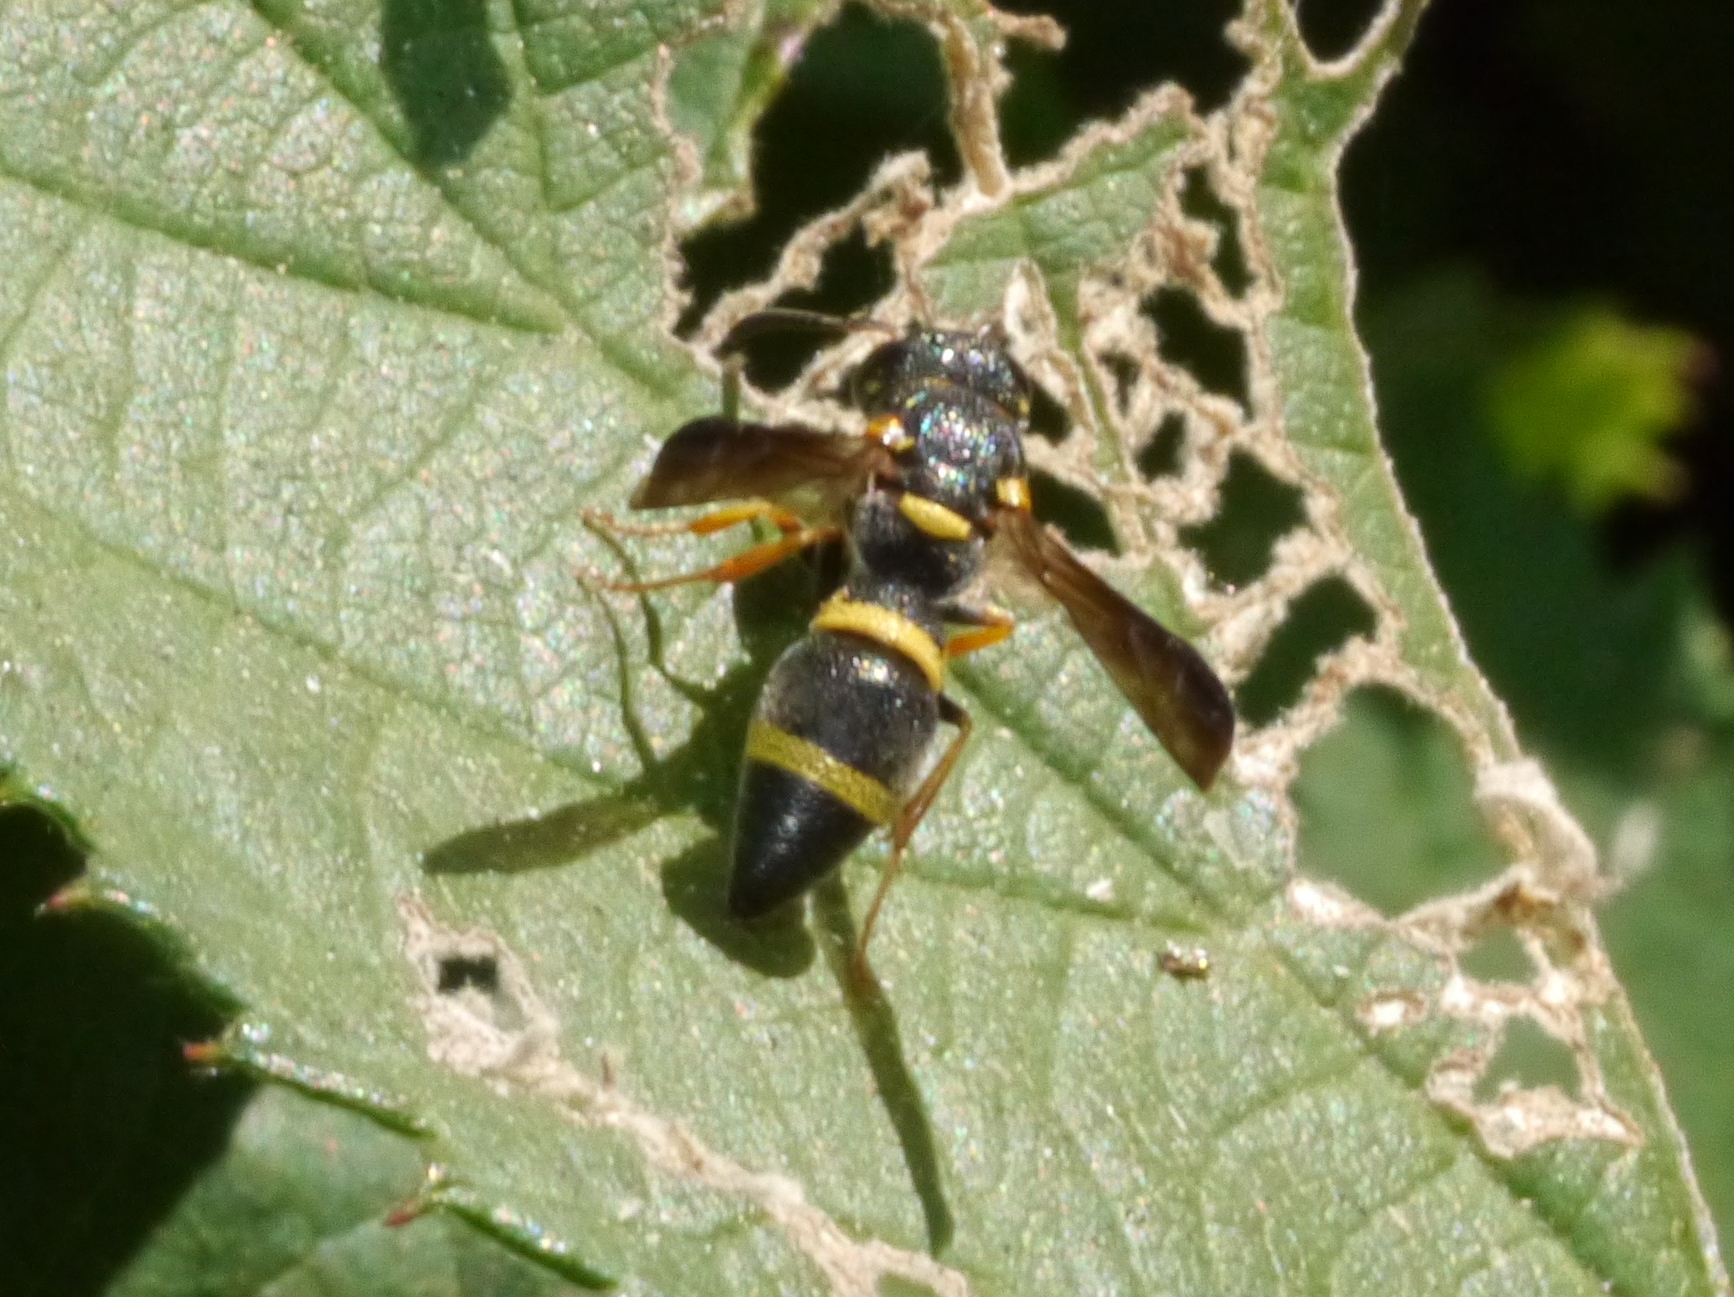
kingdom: Animalia
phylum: Arthropoda
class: Insecta
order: Hymenoptera
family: Eumenidae
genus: Parancistrocerus
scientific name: Parancistrocerus perennis
